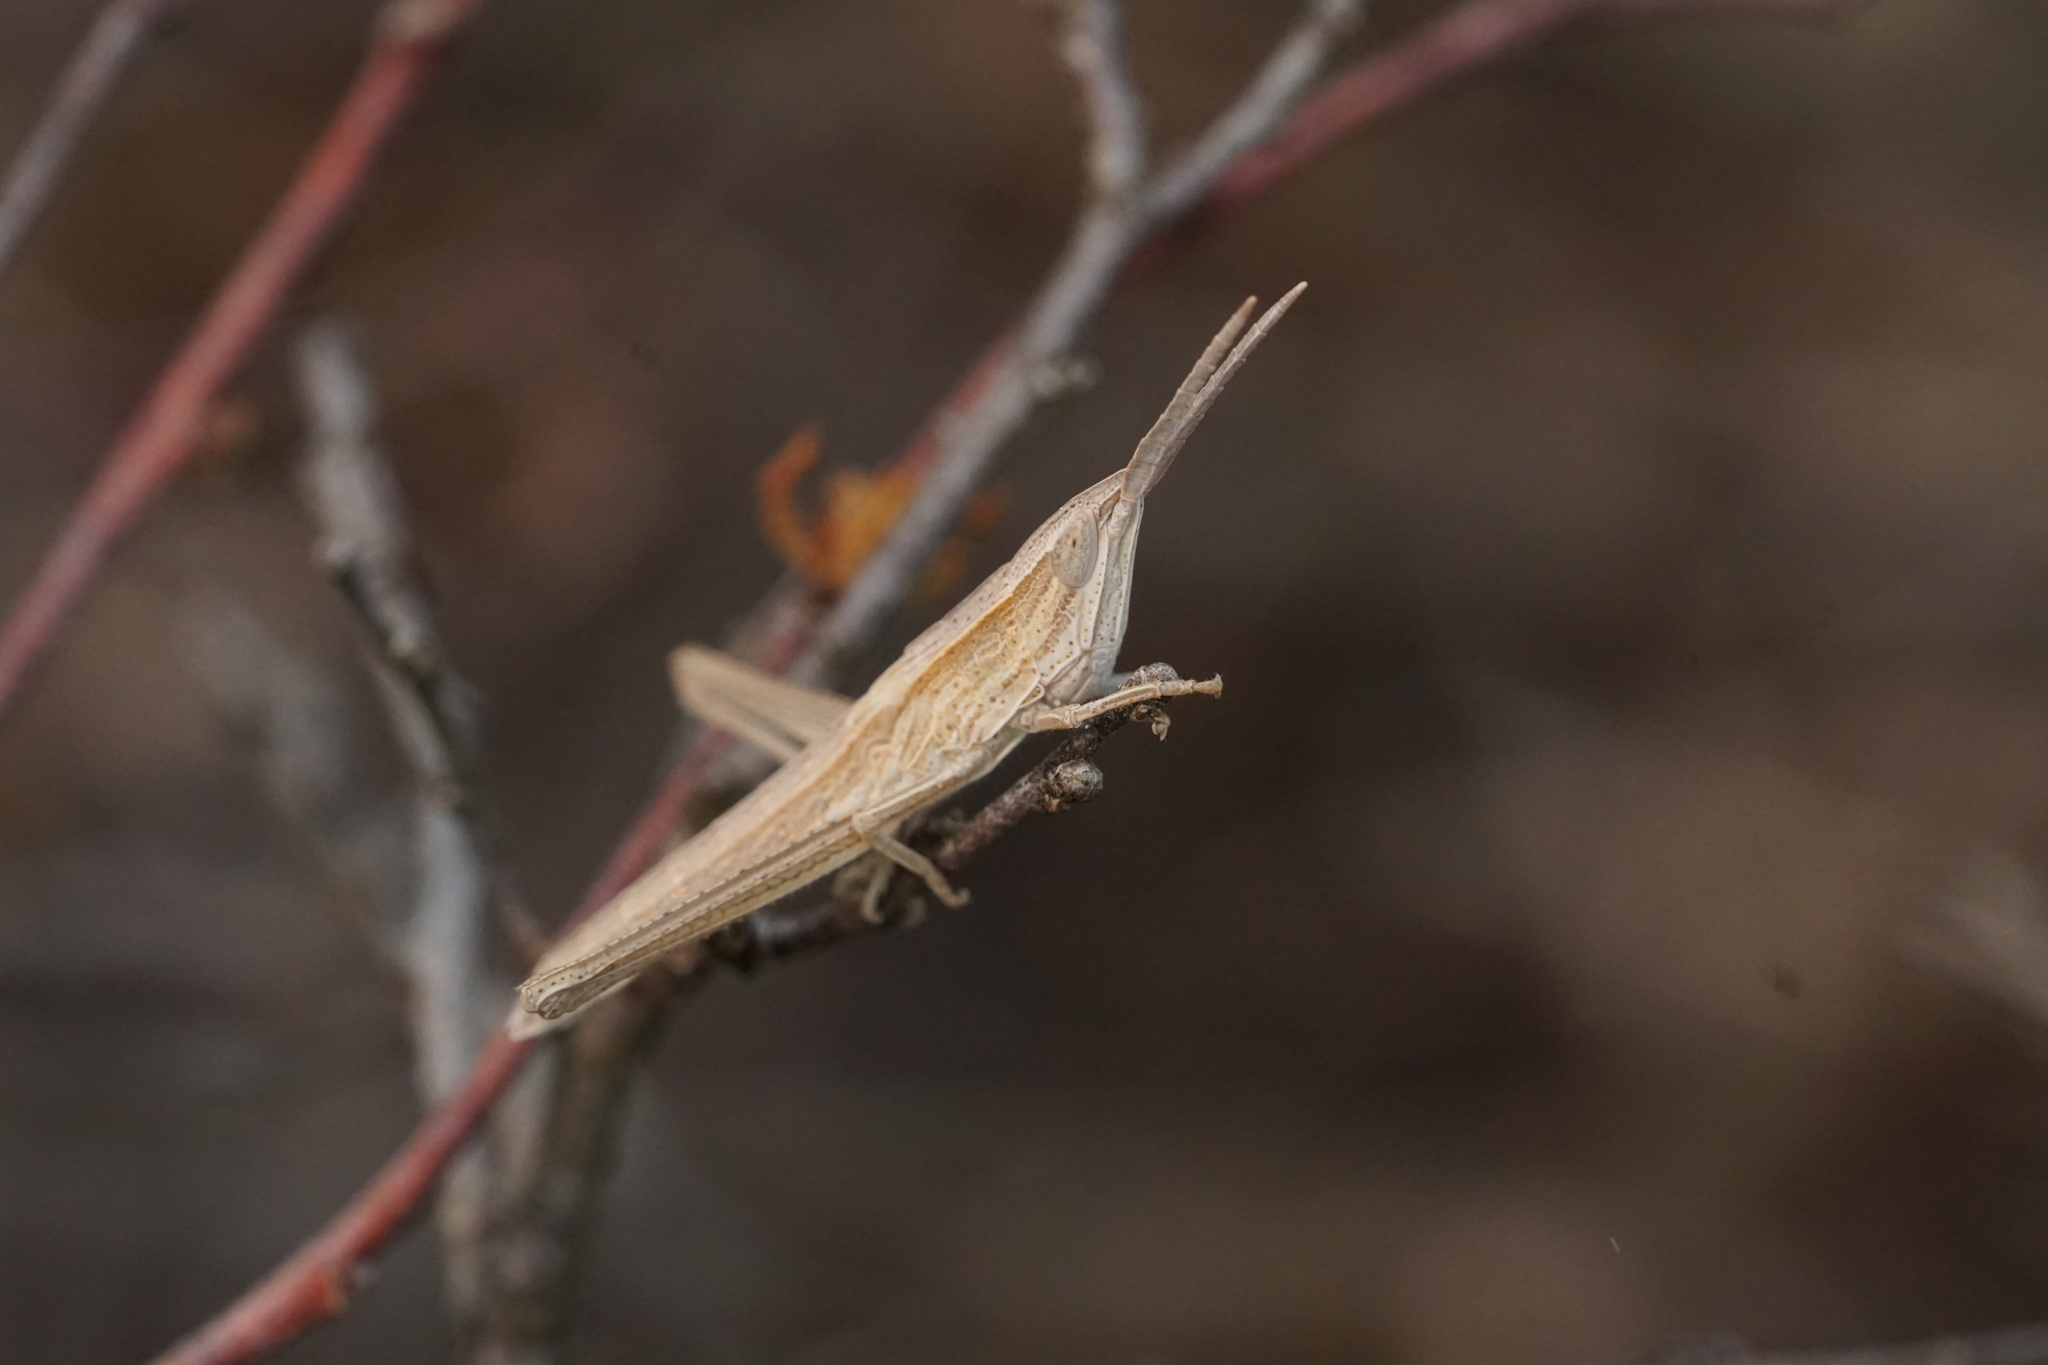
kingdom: Animalia
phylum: Arthropoda
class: Insecta
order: Orthoptera
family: Acrididae
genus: Pseudopomala
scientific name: Pseudopomala brachyptera
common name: Bunchgrass grasshopper
